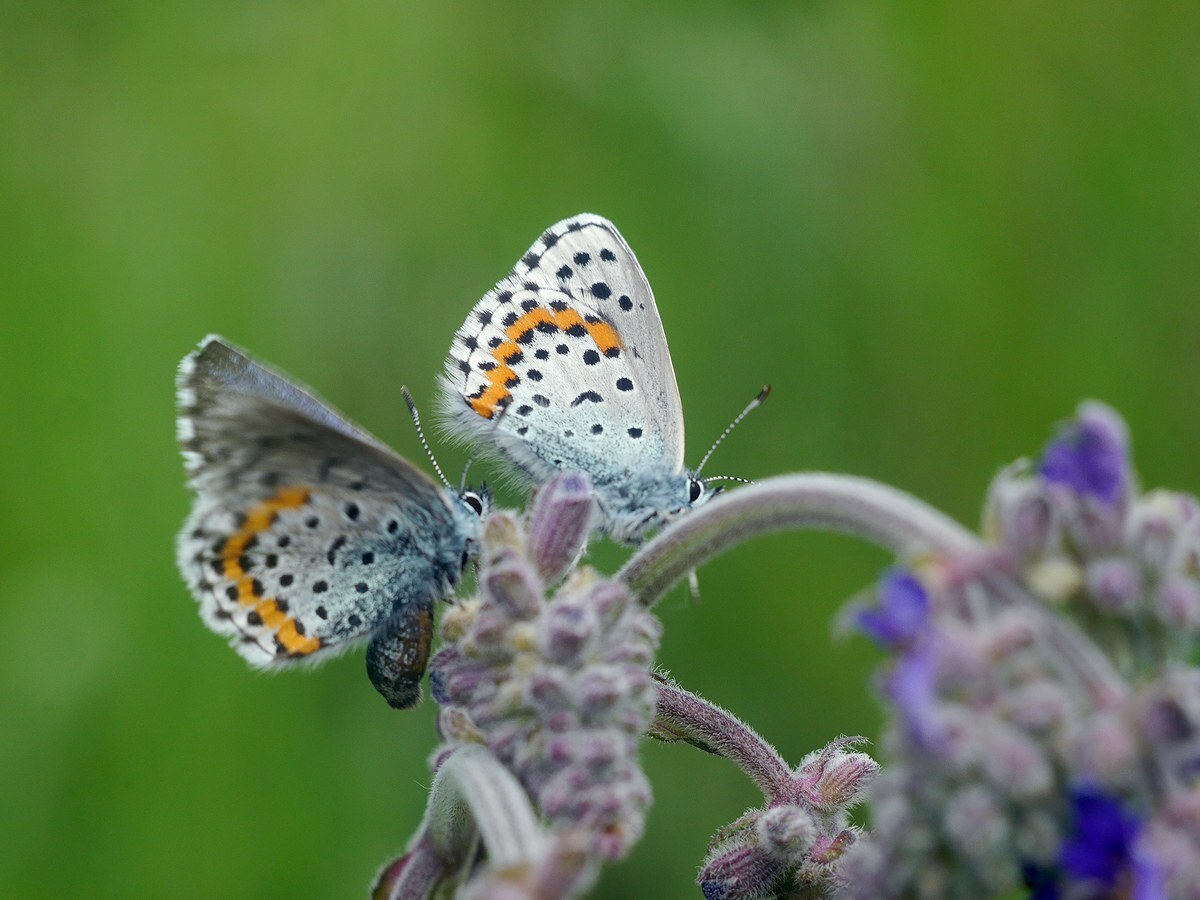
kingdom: Animalia
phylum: Arthropoda
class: Insecta
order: Lepidoptera
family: Lycaenidae
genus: Pseudophilotes
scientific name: Pseudophilotes bavius
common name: Bavius blue
